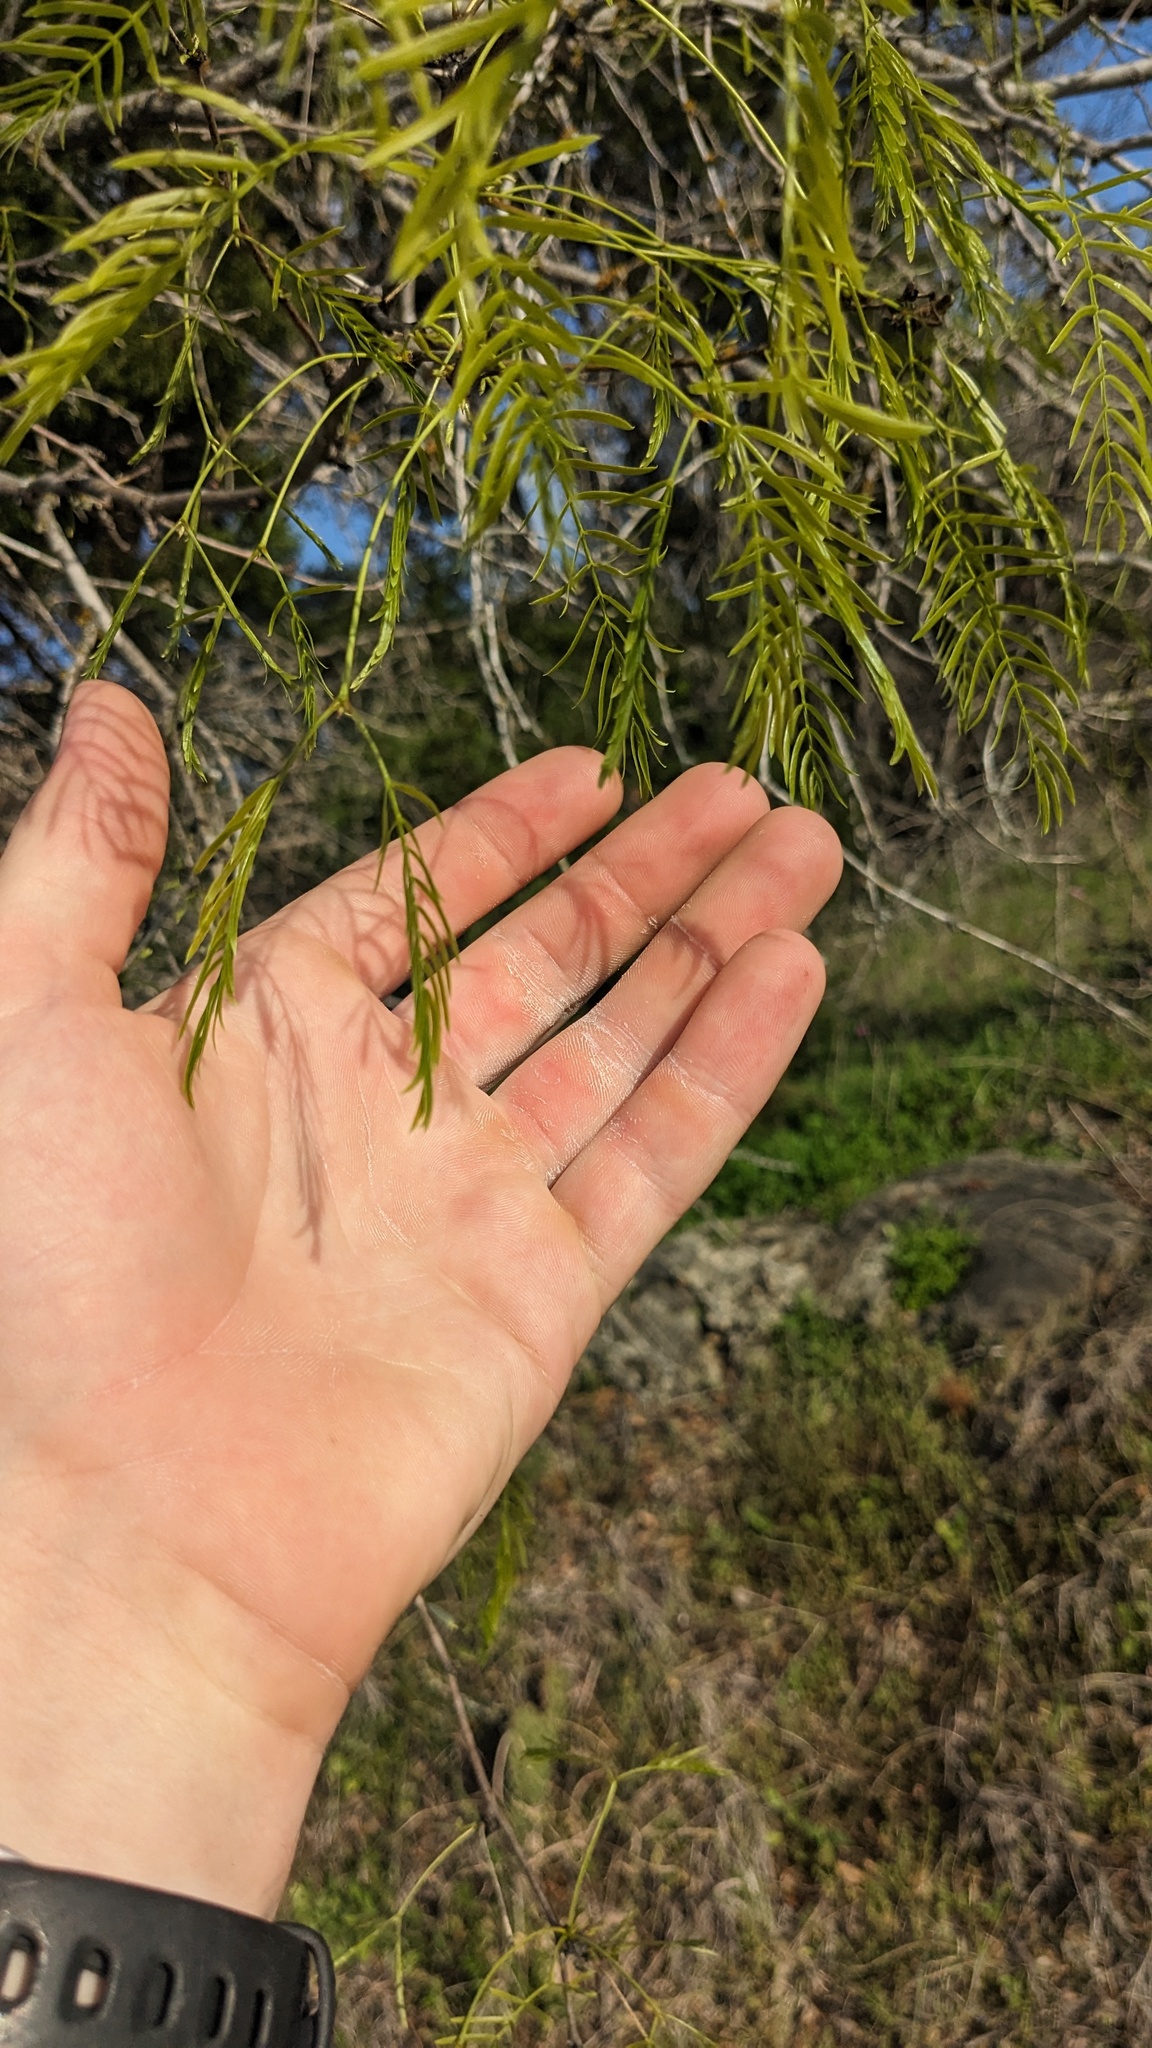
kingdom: Plantae
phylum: Tracheophyta
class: Magnoliopsida
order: Fabales
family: Fabaceae
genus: Prosopis
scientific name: Prosopis glandulosa
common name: Honey mesquite
